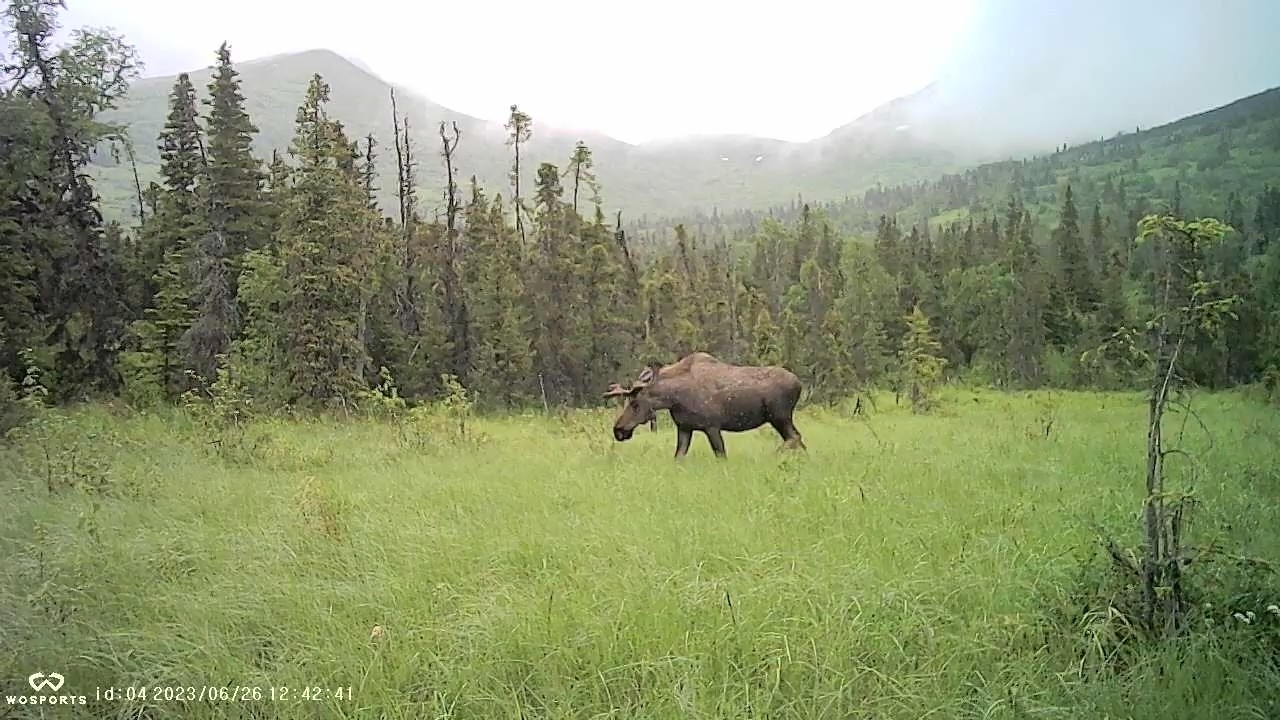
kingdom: Animalia
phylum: Chordata
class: Mammalia
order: Artiodactyla
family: Cervidae
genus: Alces
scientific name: Alces alces
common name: Moose
